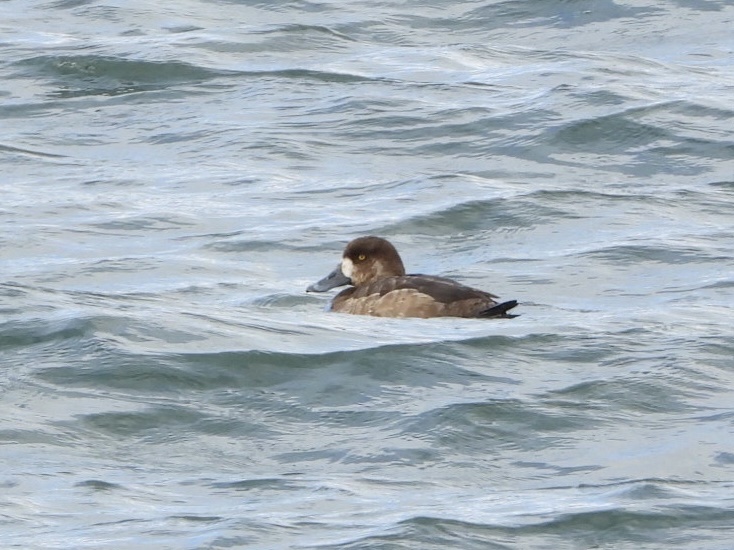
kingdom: Animalia
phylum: Chordata
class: Aves
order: Anseriformes
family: Anatidae
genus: Aythya
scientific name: Aythya marila
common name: Greater scaup
